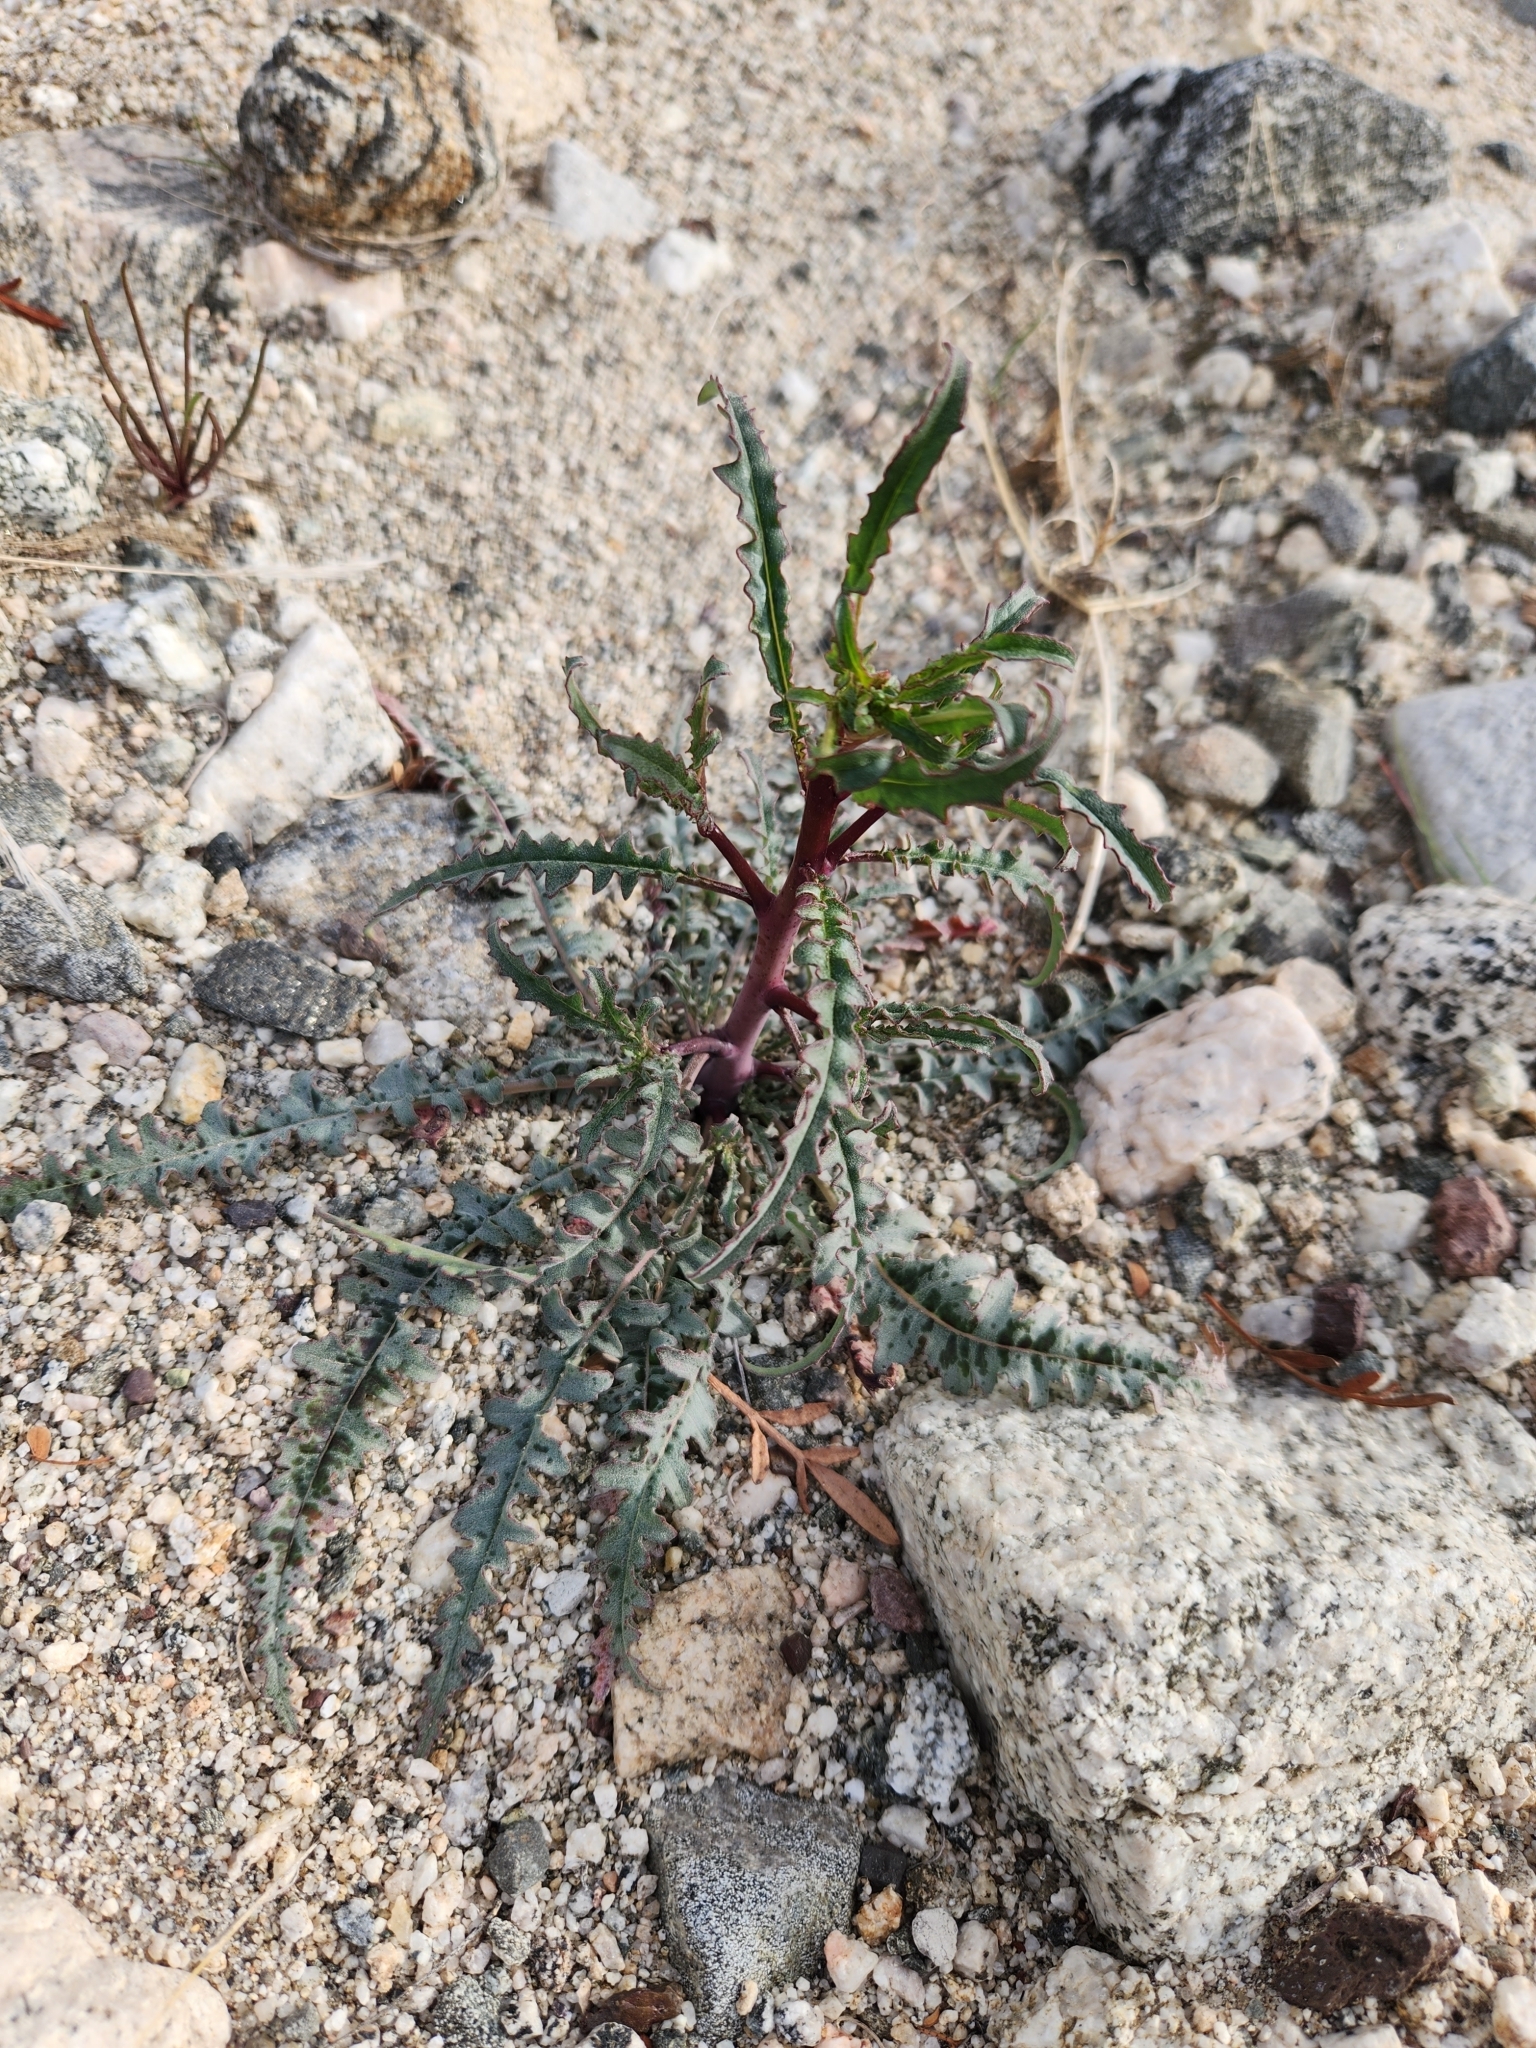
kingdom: Plantae
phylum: Tracheophyta
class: Magnoliopsida
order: Myrtales
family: Onagraceae
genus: Eulobus
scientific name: Eulobus californicus
